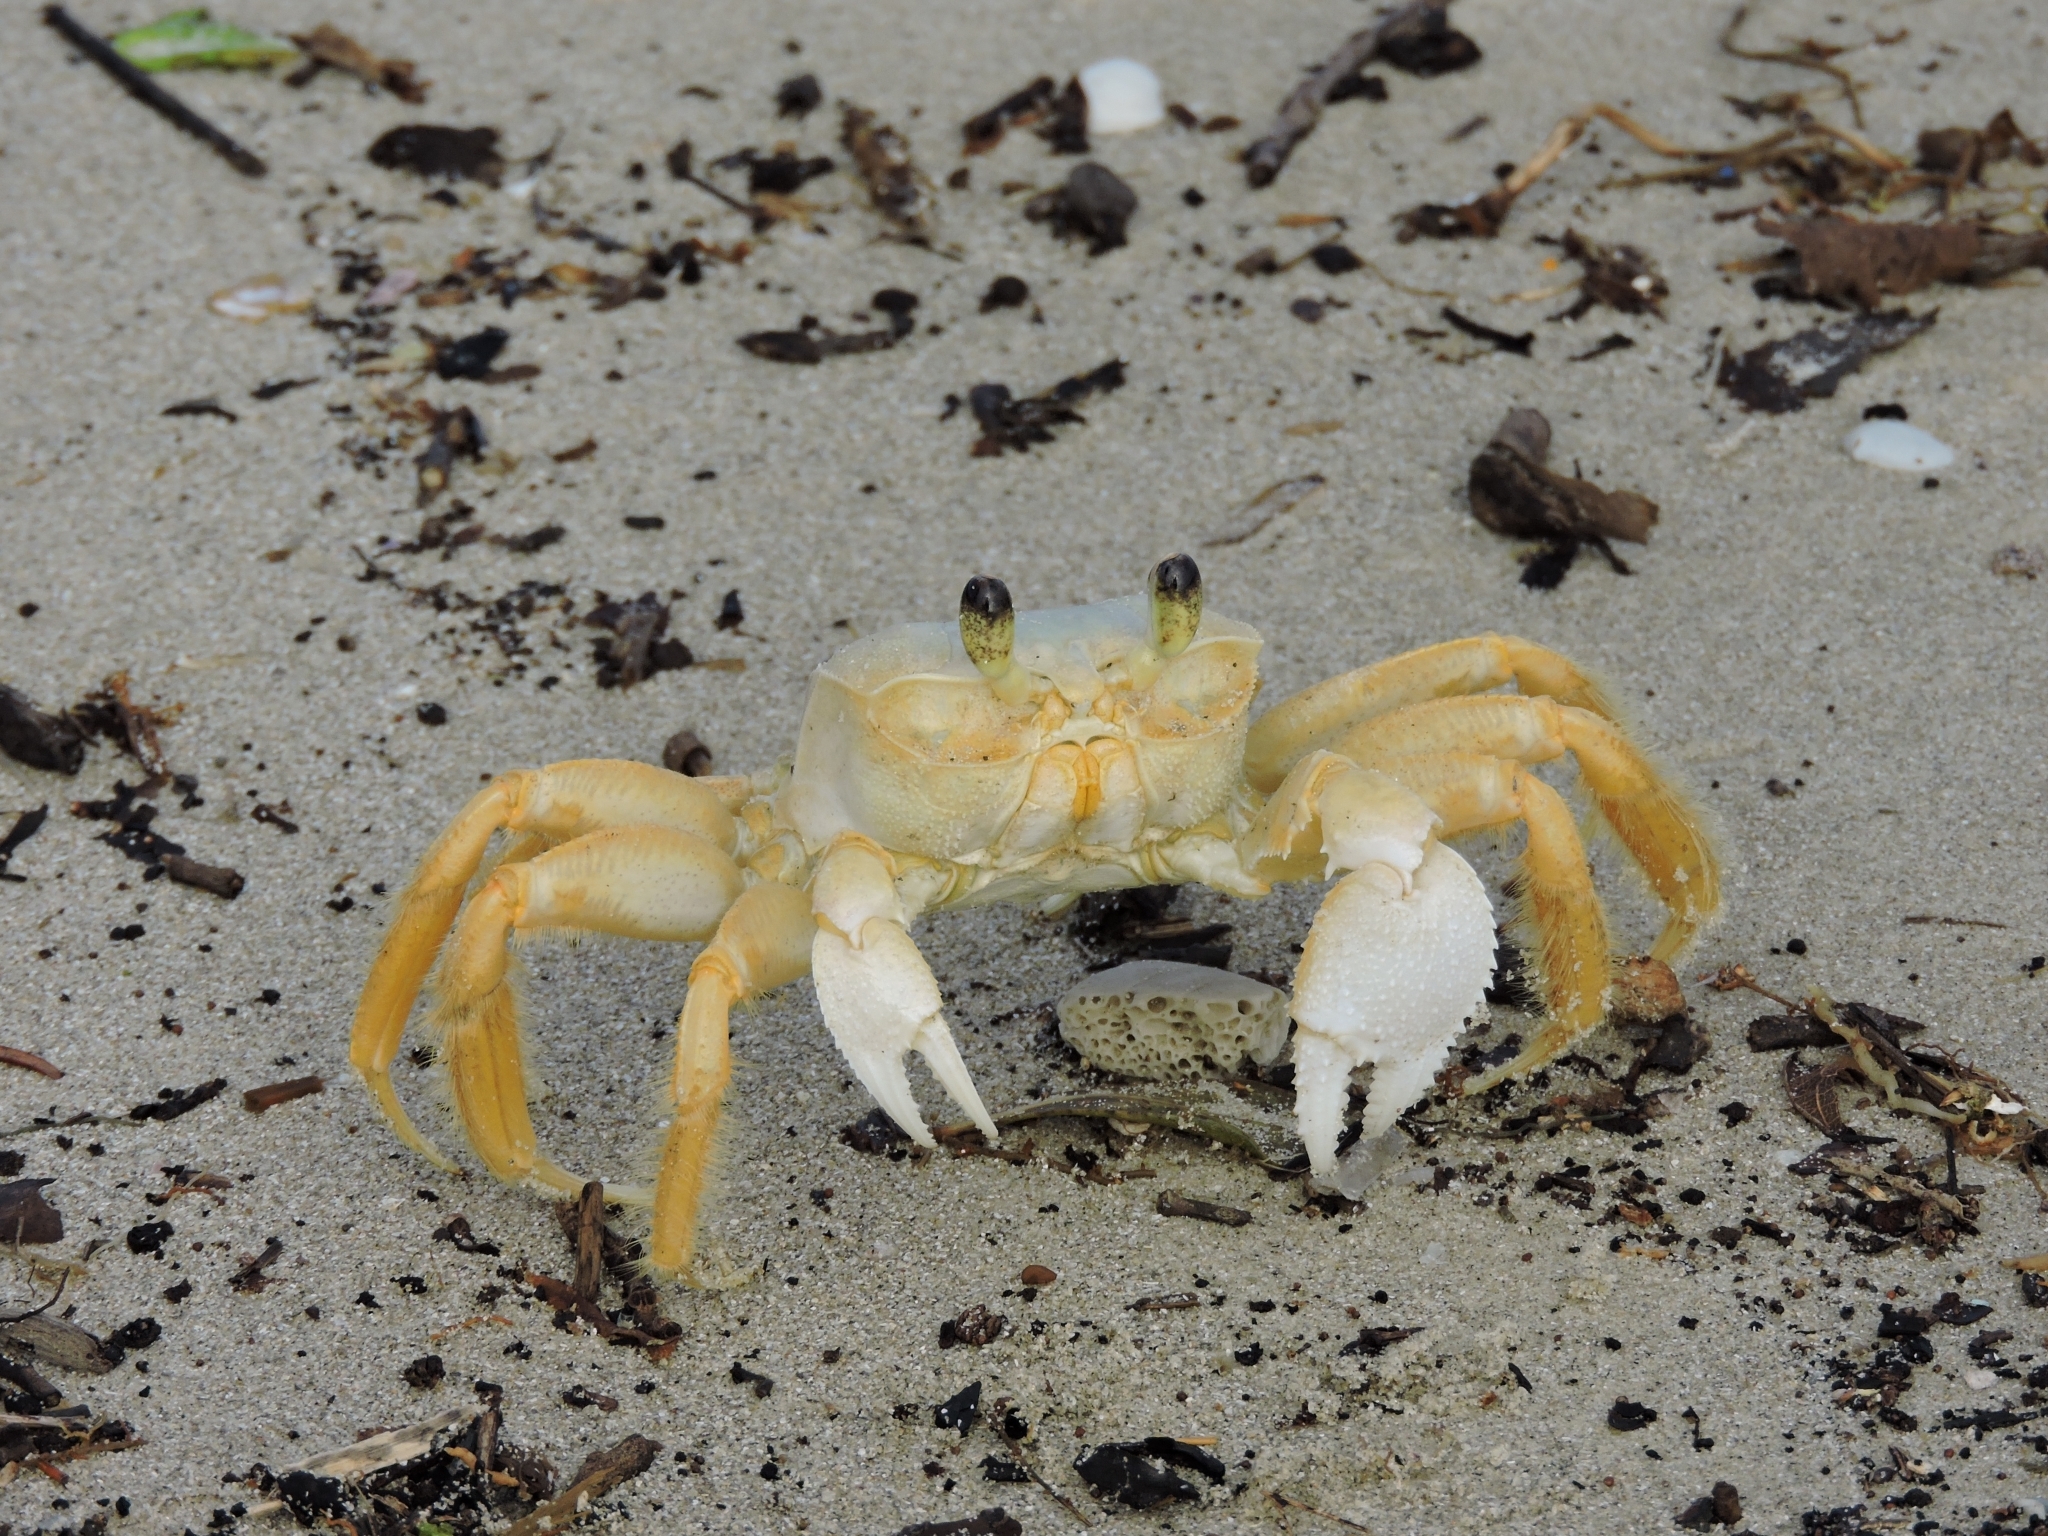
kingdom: Animalia
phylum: Arthropoda
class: Malacostraca
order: Decapoda
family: Ocypodidae
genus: Ocypode
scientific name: Ocypode quadrata
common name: Ghost crab
